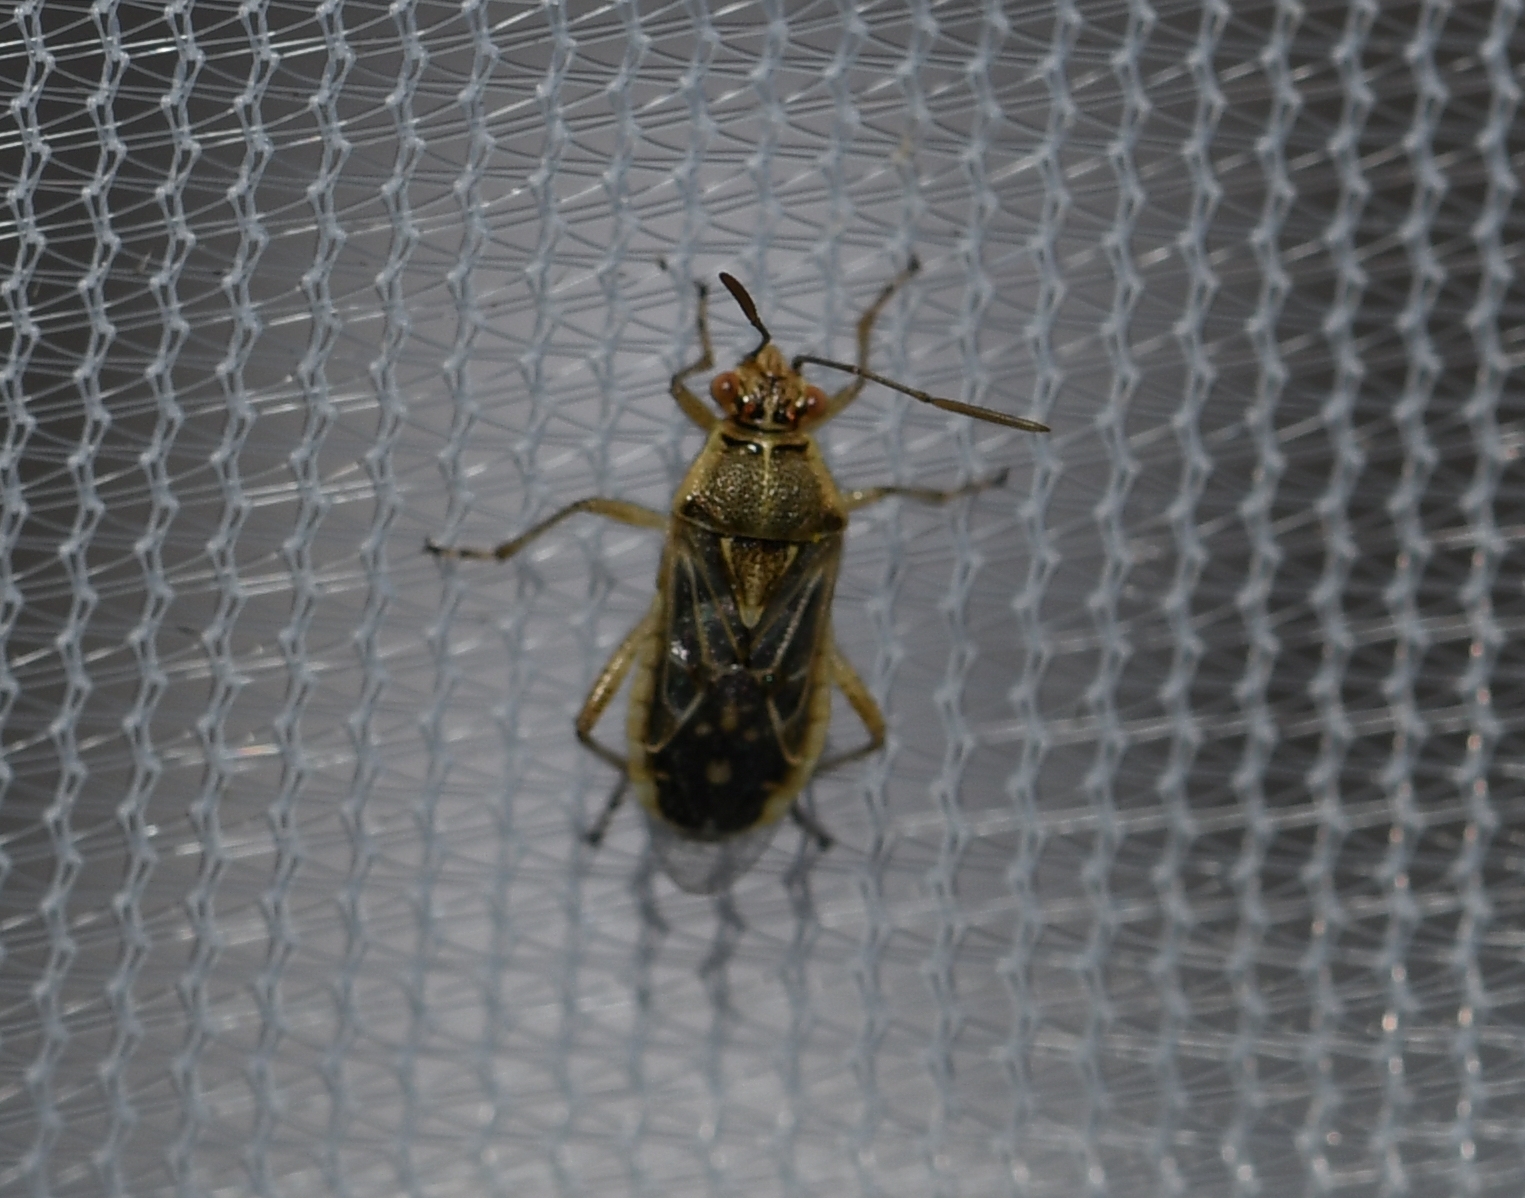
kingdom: Animalia
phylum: Arthropoda
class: Insecta
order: Hemiptera
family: Rhopalidae
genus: Liorhyssus
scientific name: Liorhyssus hyalinus
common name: Scentless plant bug
